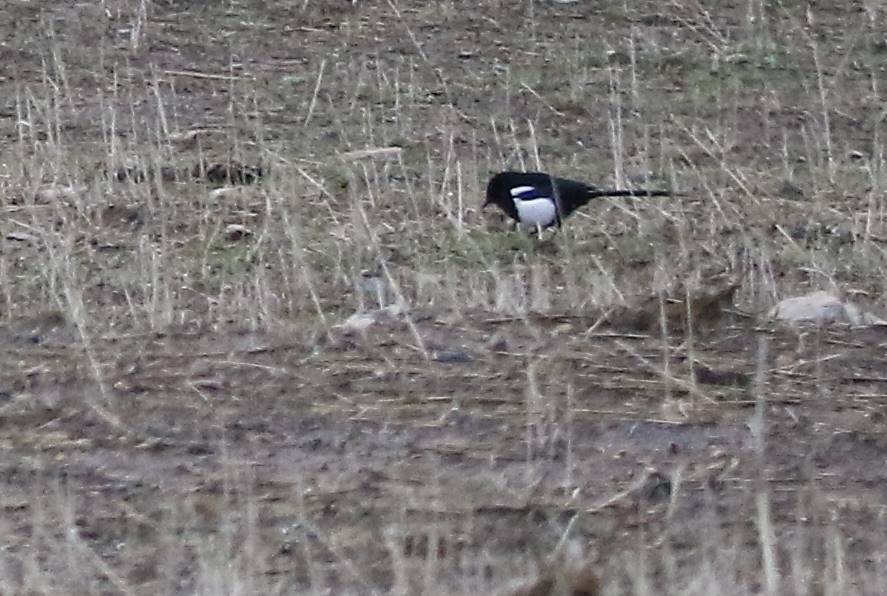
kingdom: Animalia
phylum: Chordata
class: Aves
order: Passeriformes
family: Corvidae
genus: Pica
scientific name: Pica mauritanica
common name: Maghreb magpie
